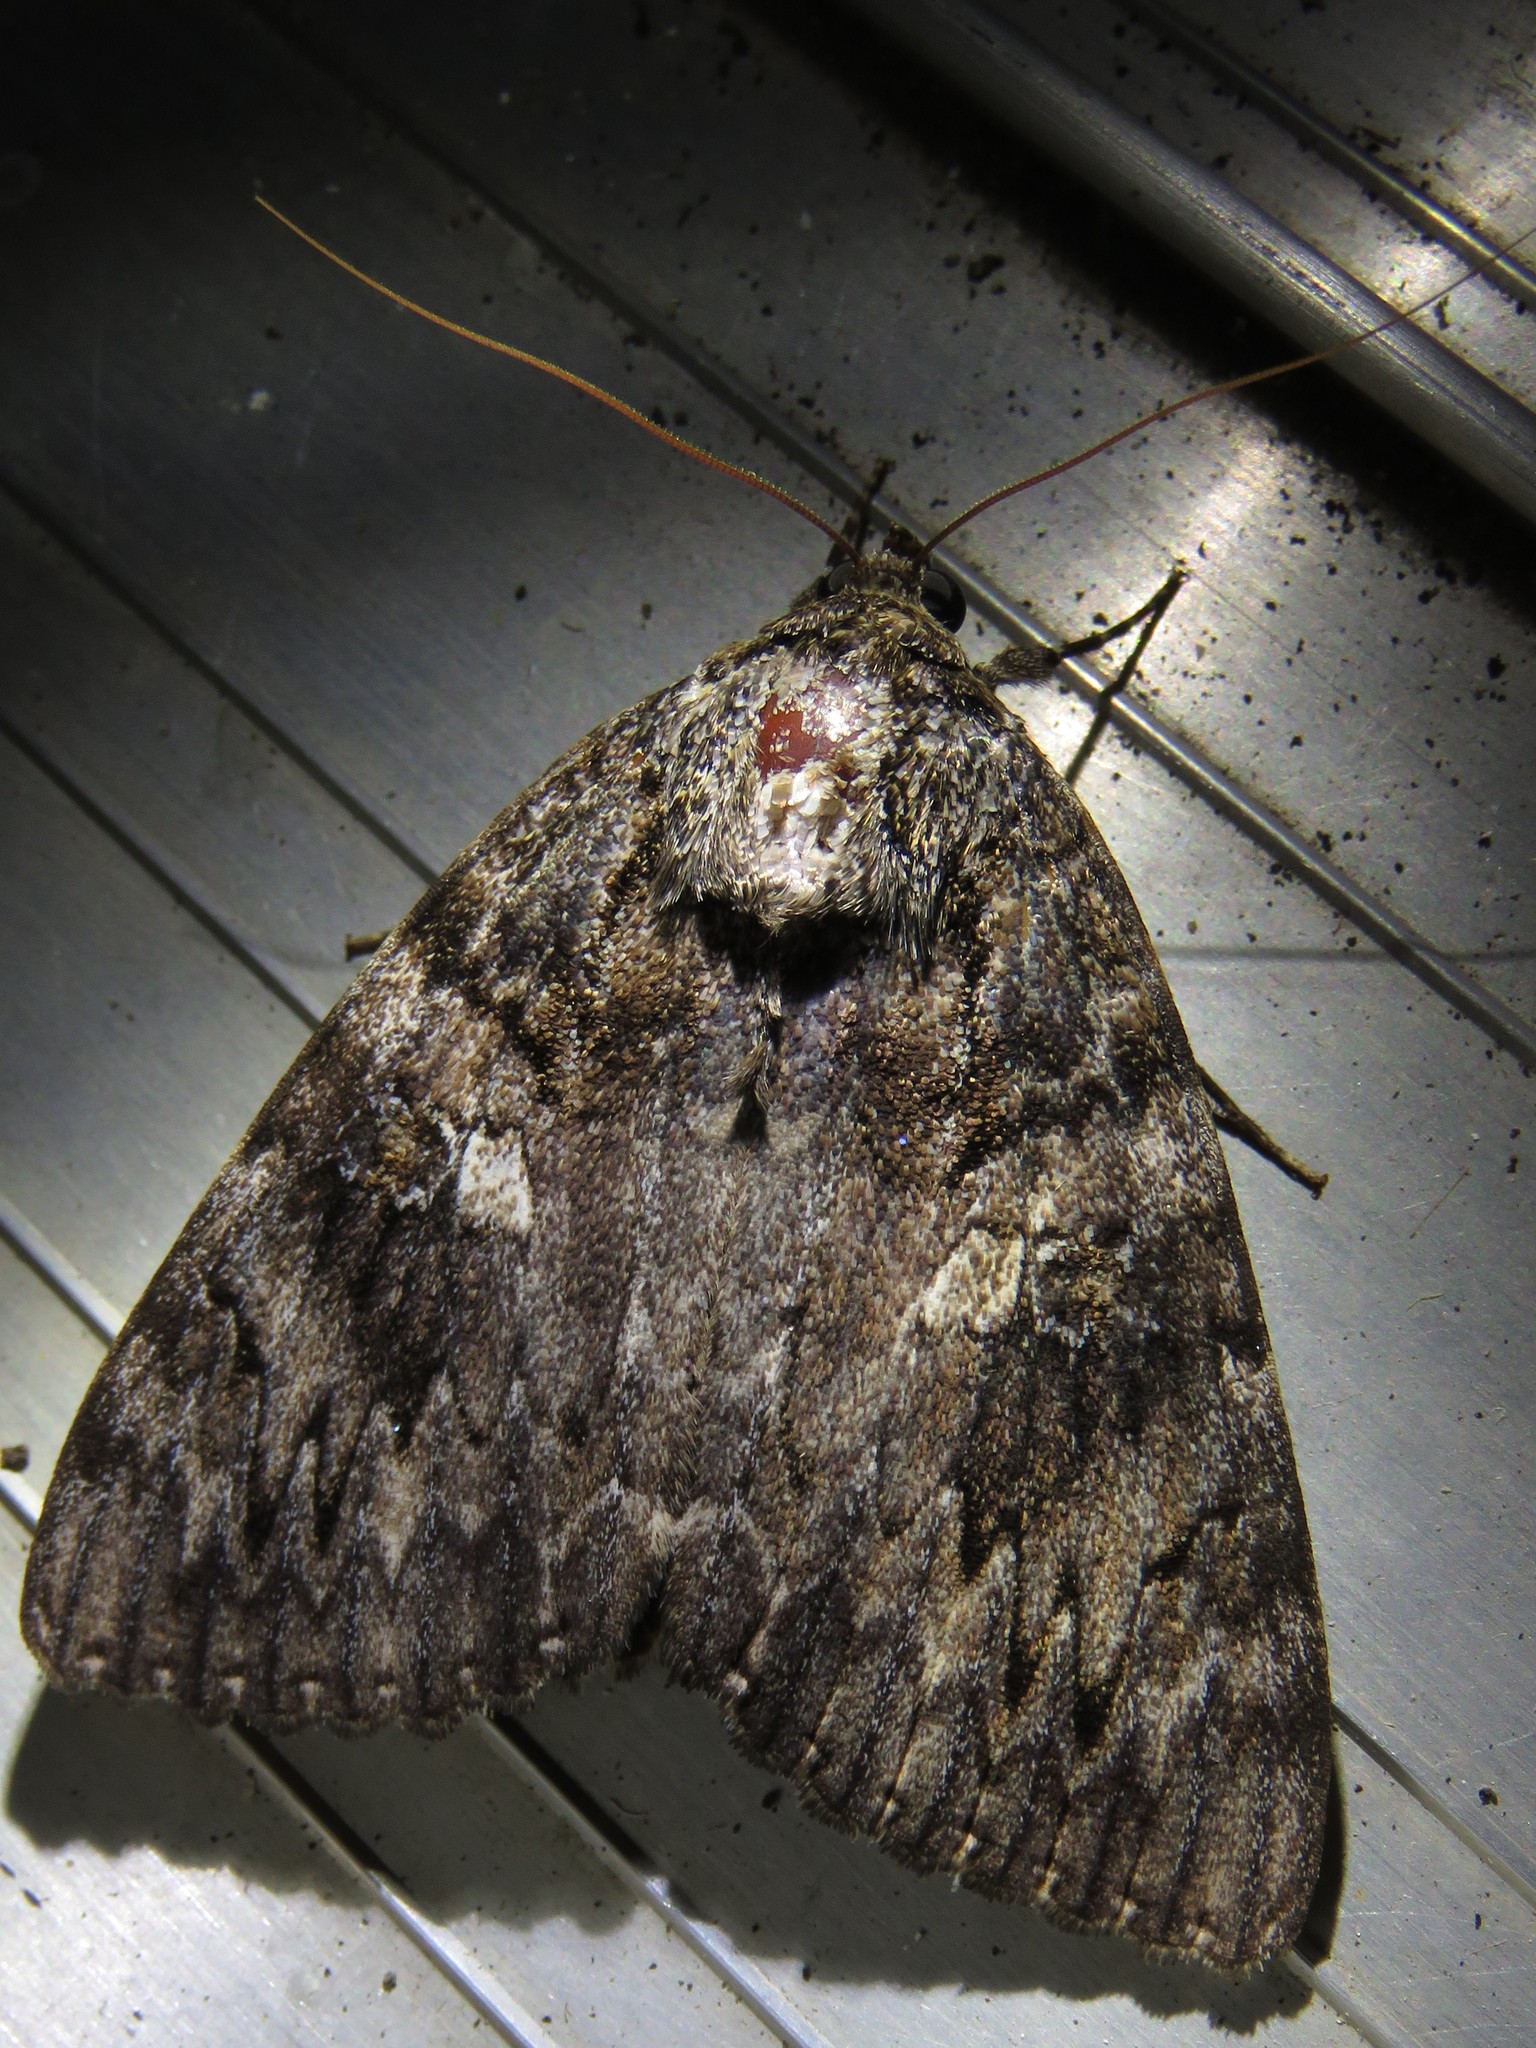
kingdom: Animalia
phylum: Arthropoda
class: Insecta
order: Lepidoptera
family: Erebidae
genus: Catocala
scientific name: Catocala ilia
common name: Ilia underwing
